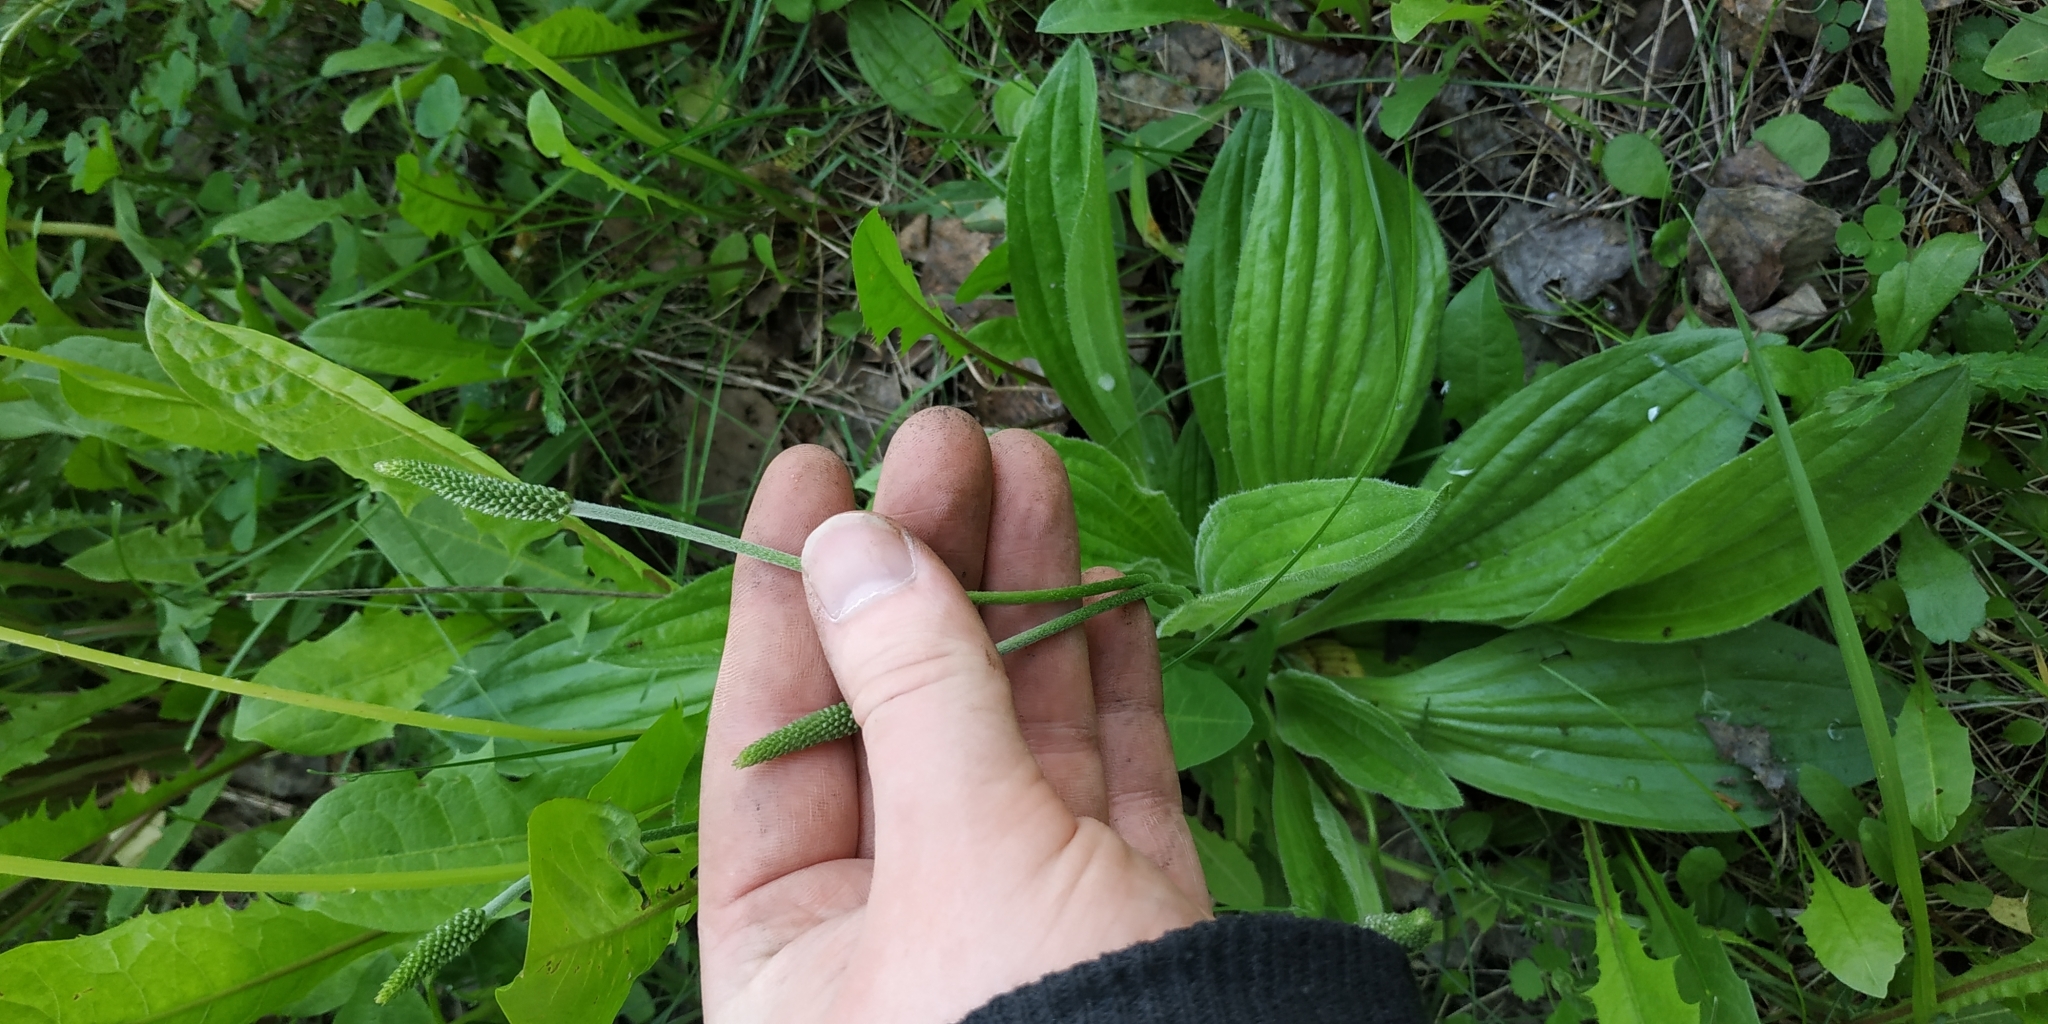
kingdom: Plantae
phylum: Tracheophyta
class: Magnoliopsida
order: Lamiales
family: Plantaginaceae
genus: Plantago
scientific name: Plantago media
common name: Hoary plantain
